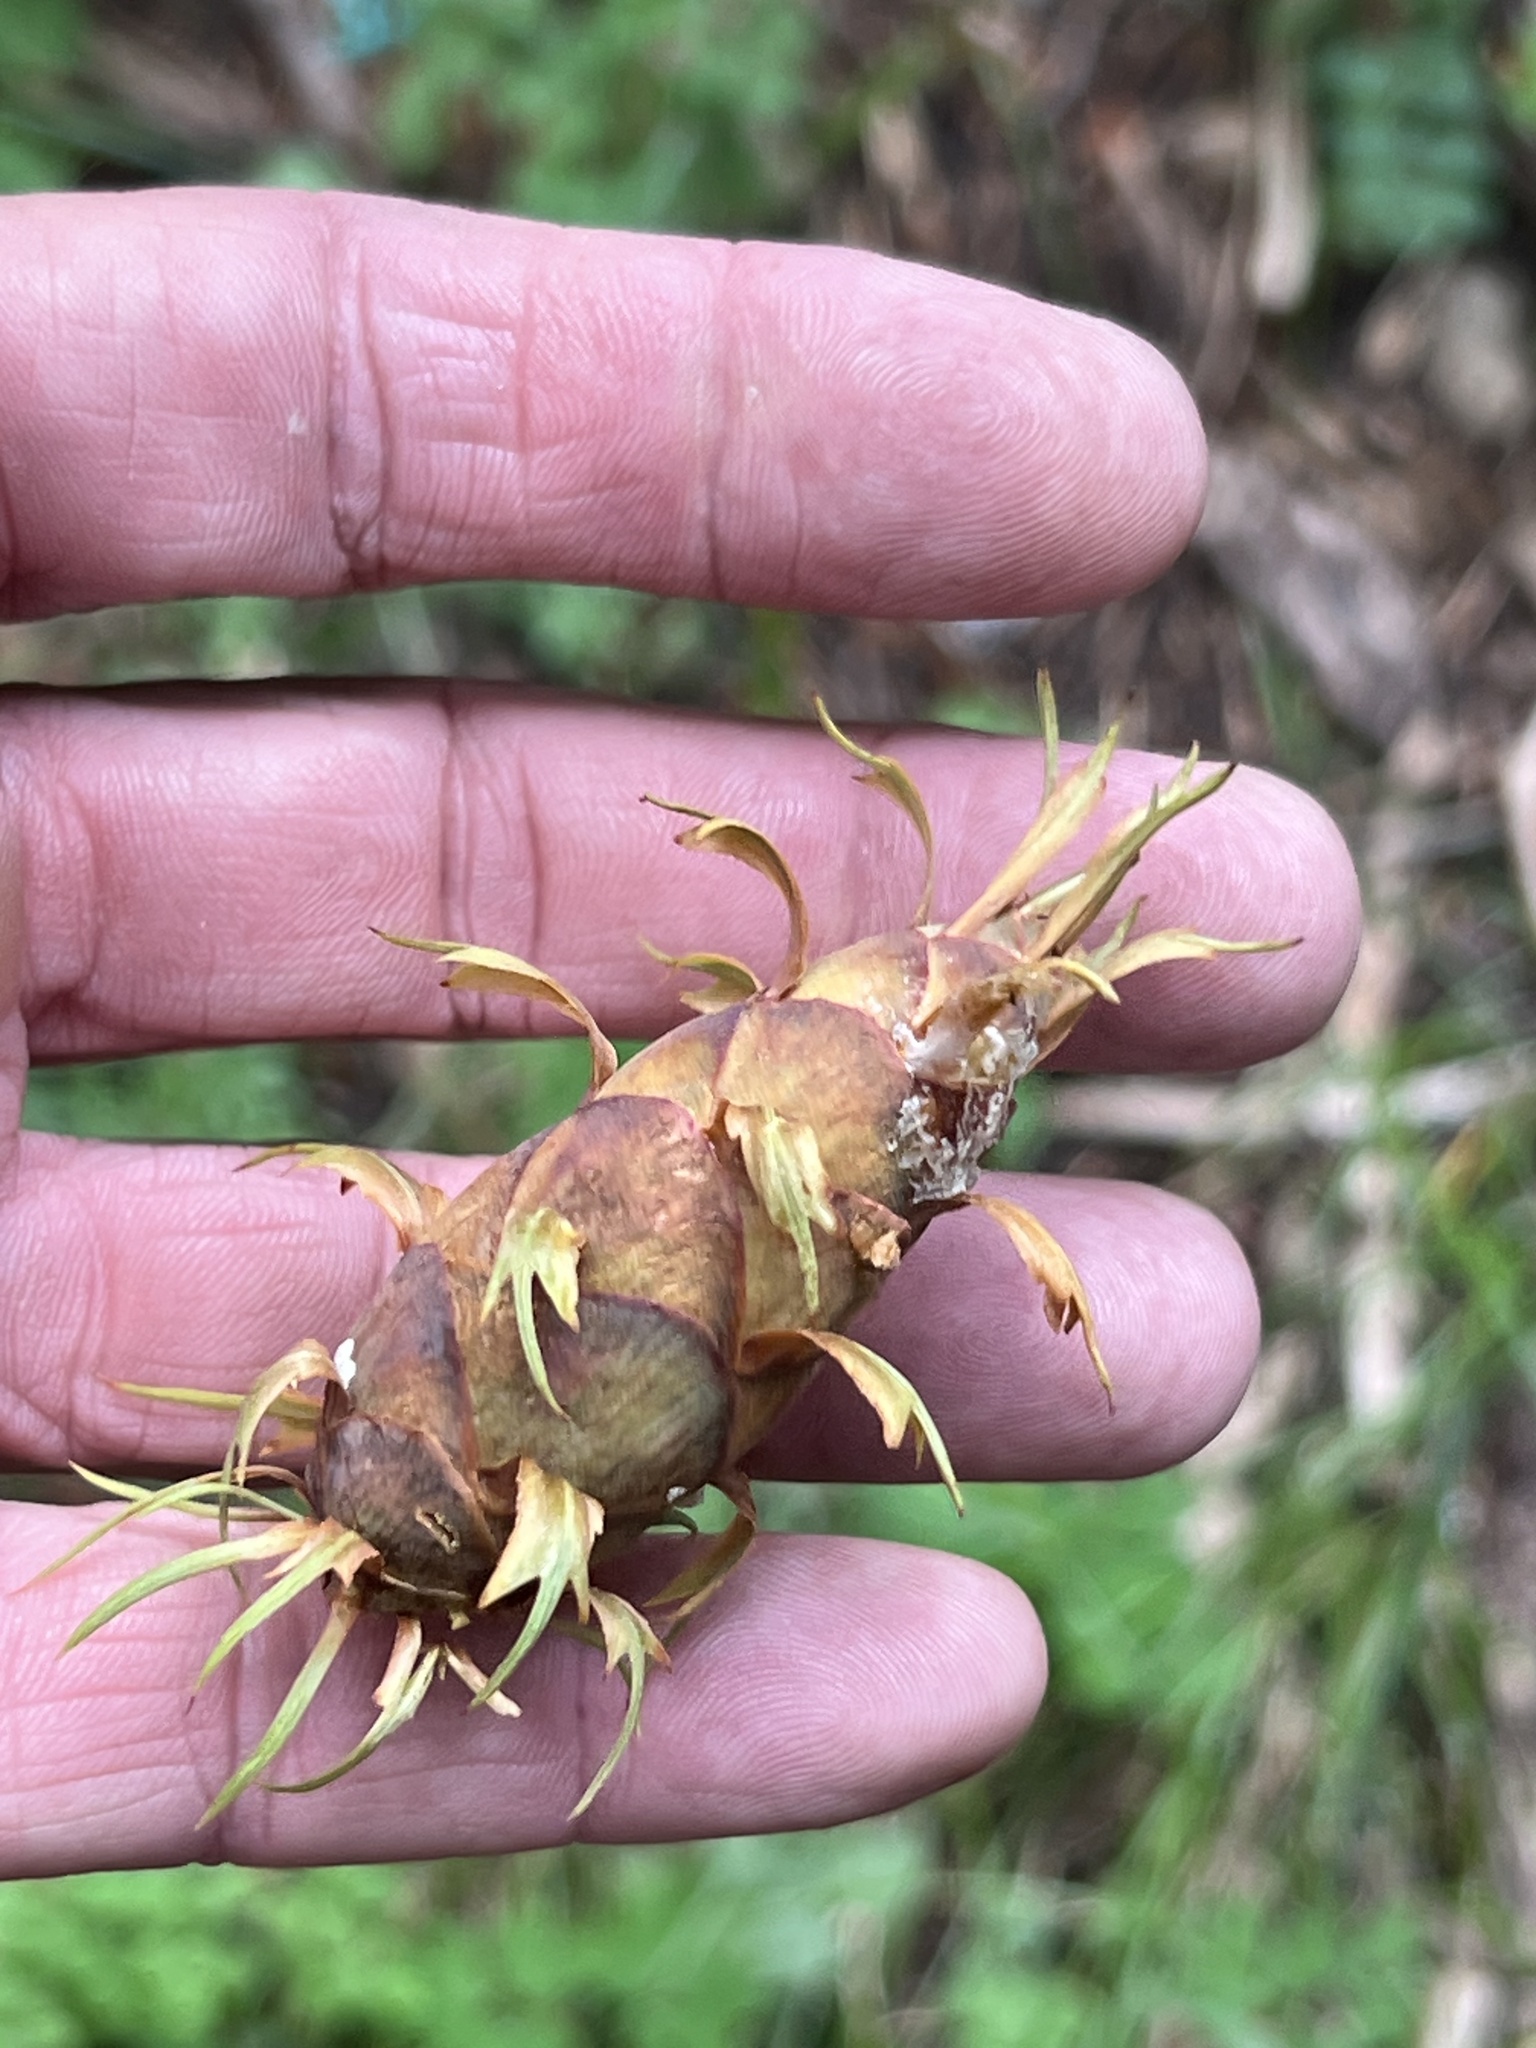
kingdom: Plantae
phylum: Tracheophyta
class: Pinopsida
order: Pinales
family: Pinaceae
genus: Pseudotsuga
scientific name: Pseudotsuga menziesii
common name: Douglas fir
